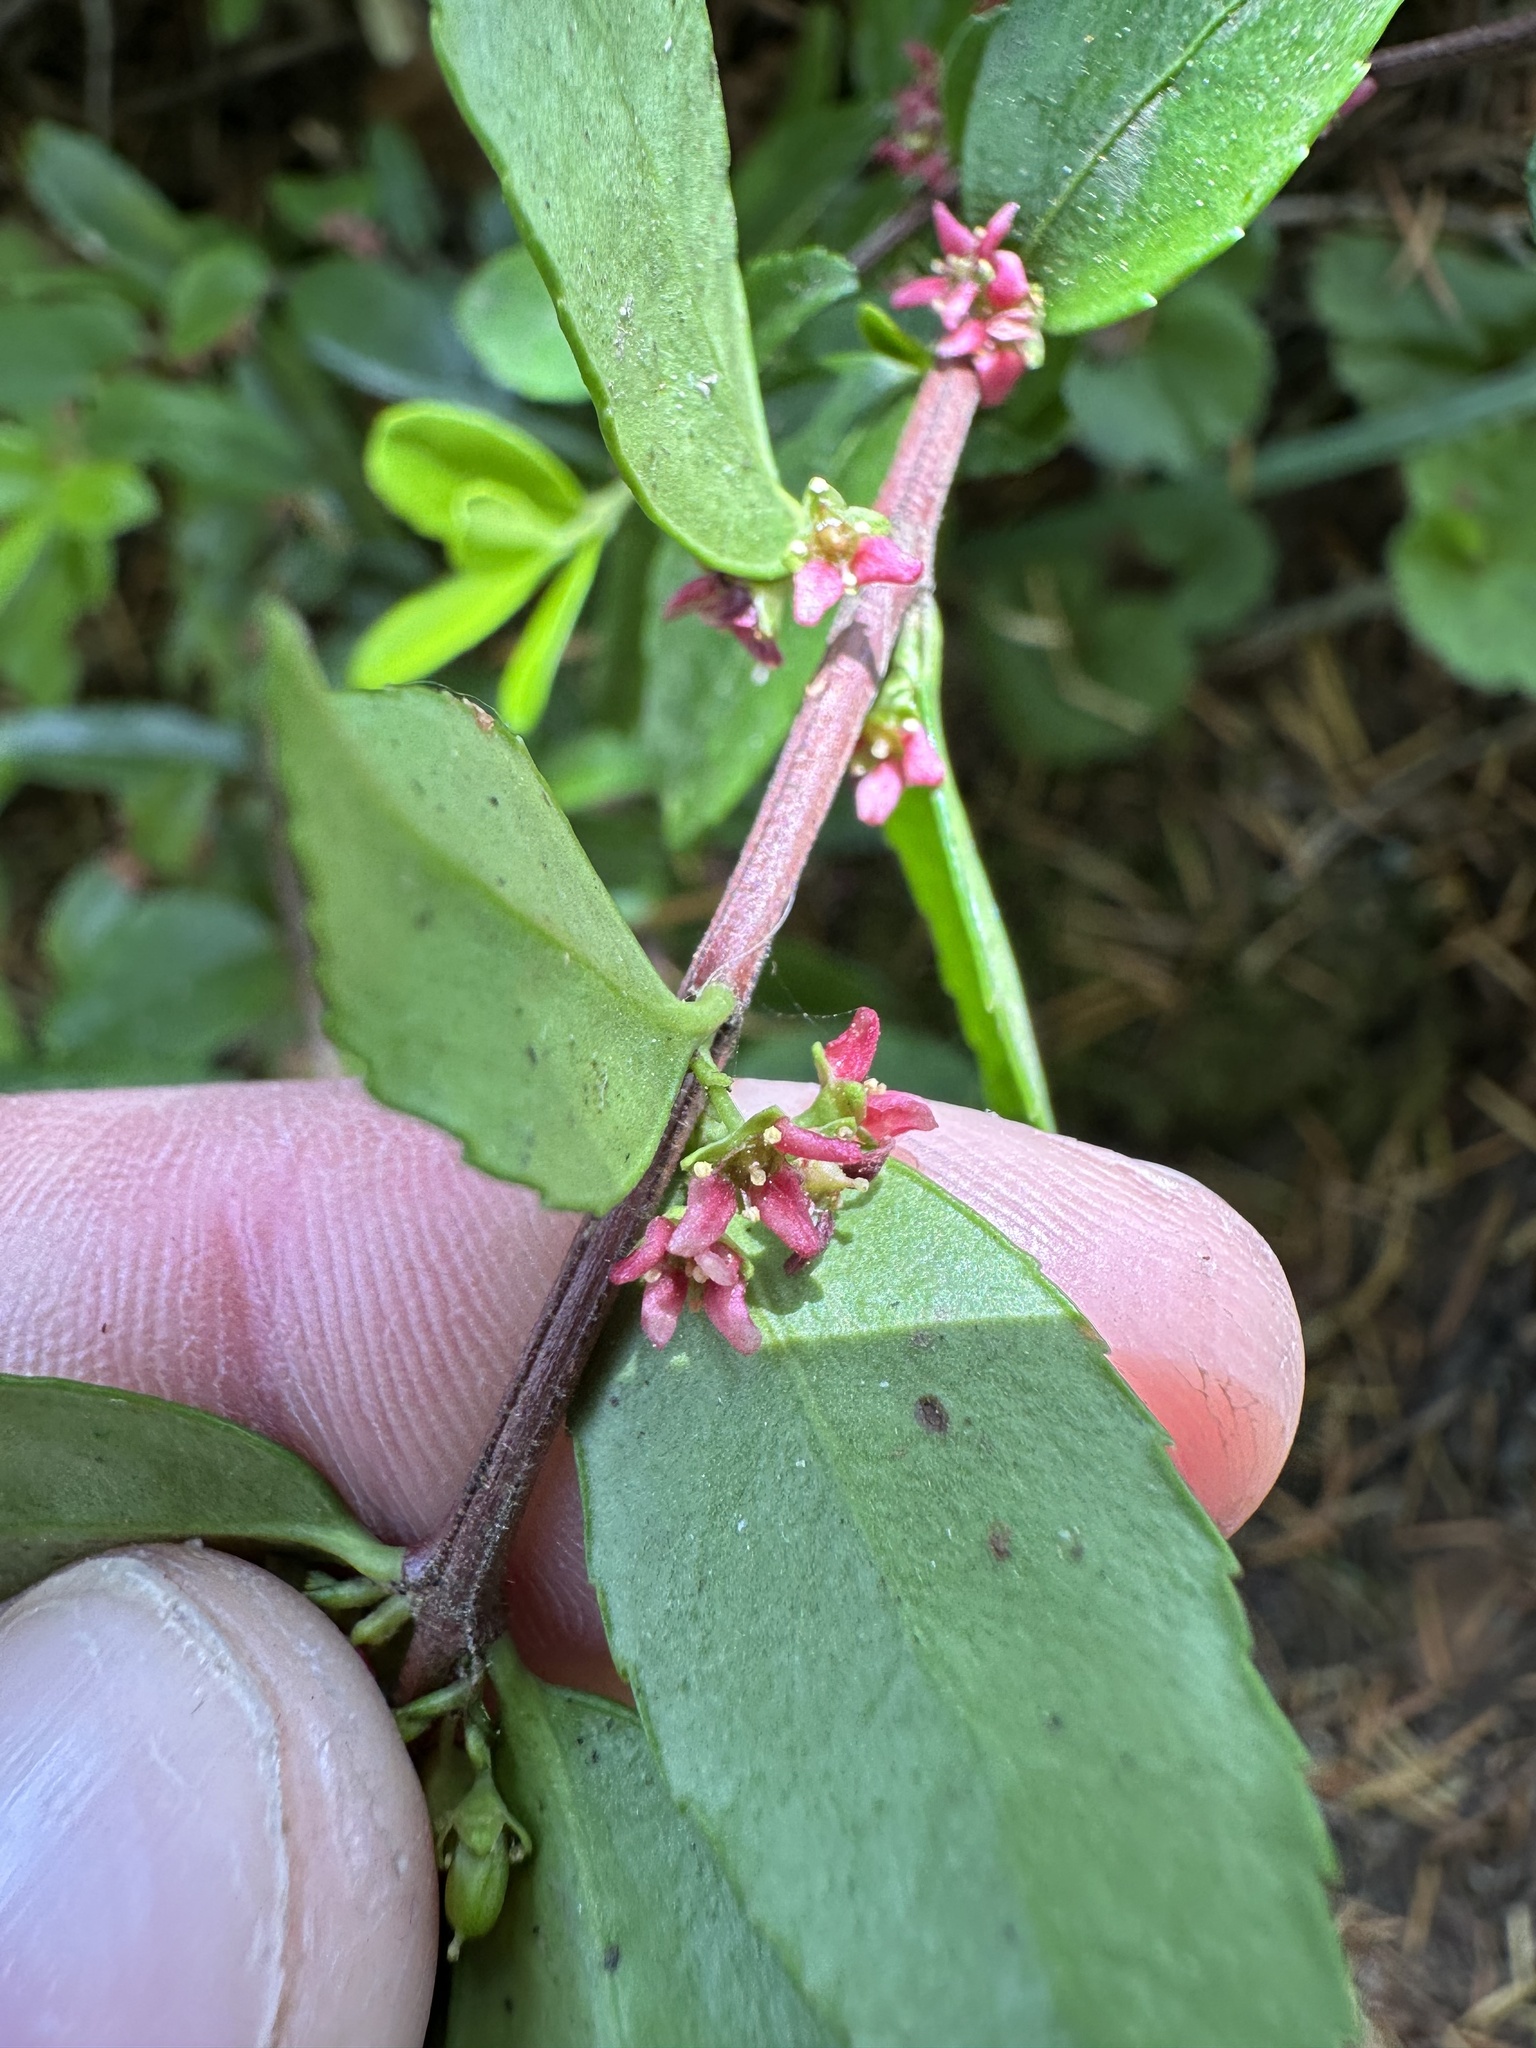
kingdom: Plantae
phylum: Tracheophyta
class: Magnoliopsida
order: Celastrales
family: Celastraceae
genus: Paxistima
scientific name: Paxistima myrsinites
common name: Mountain-lover
